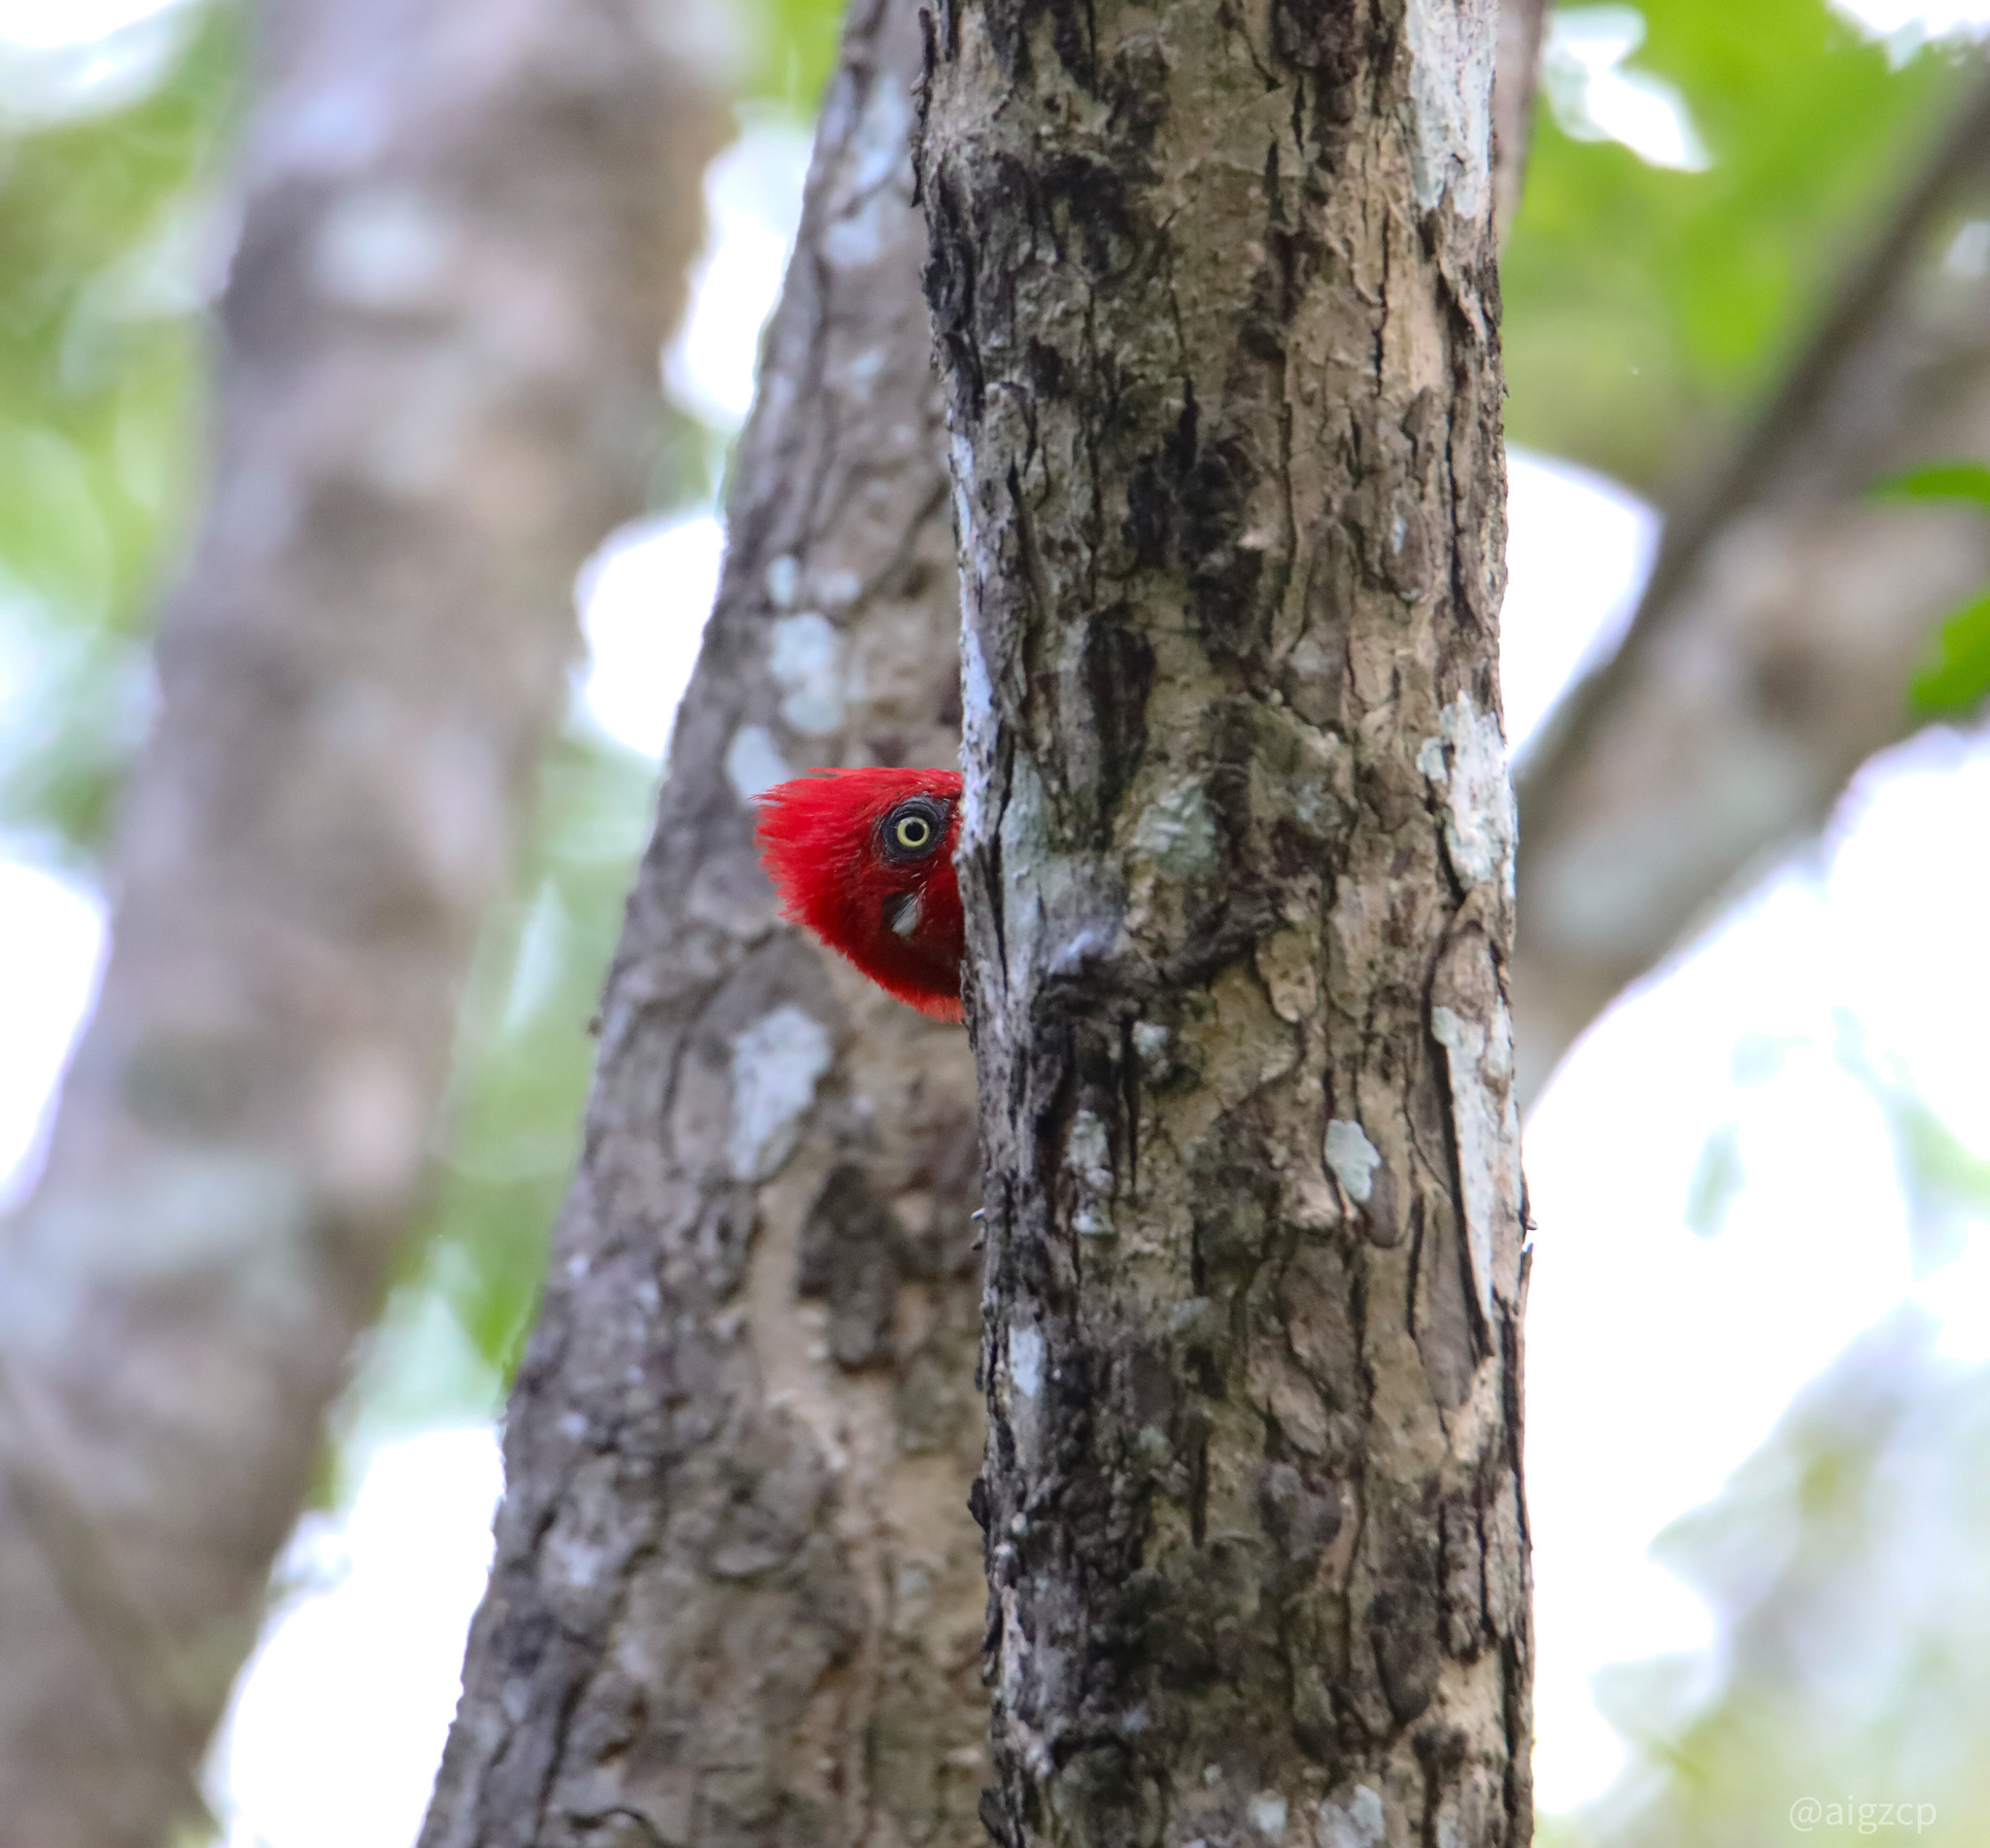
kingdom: Animalia
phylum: Chordata
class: Aves
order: Piciformes
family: Picidae
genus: Campephilus
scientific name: Campephilus melanoleucos
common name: Crimson-crested woodpecker
